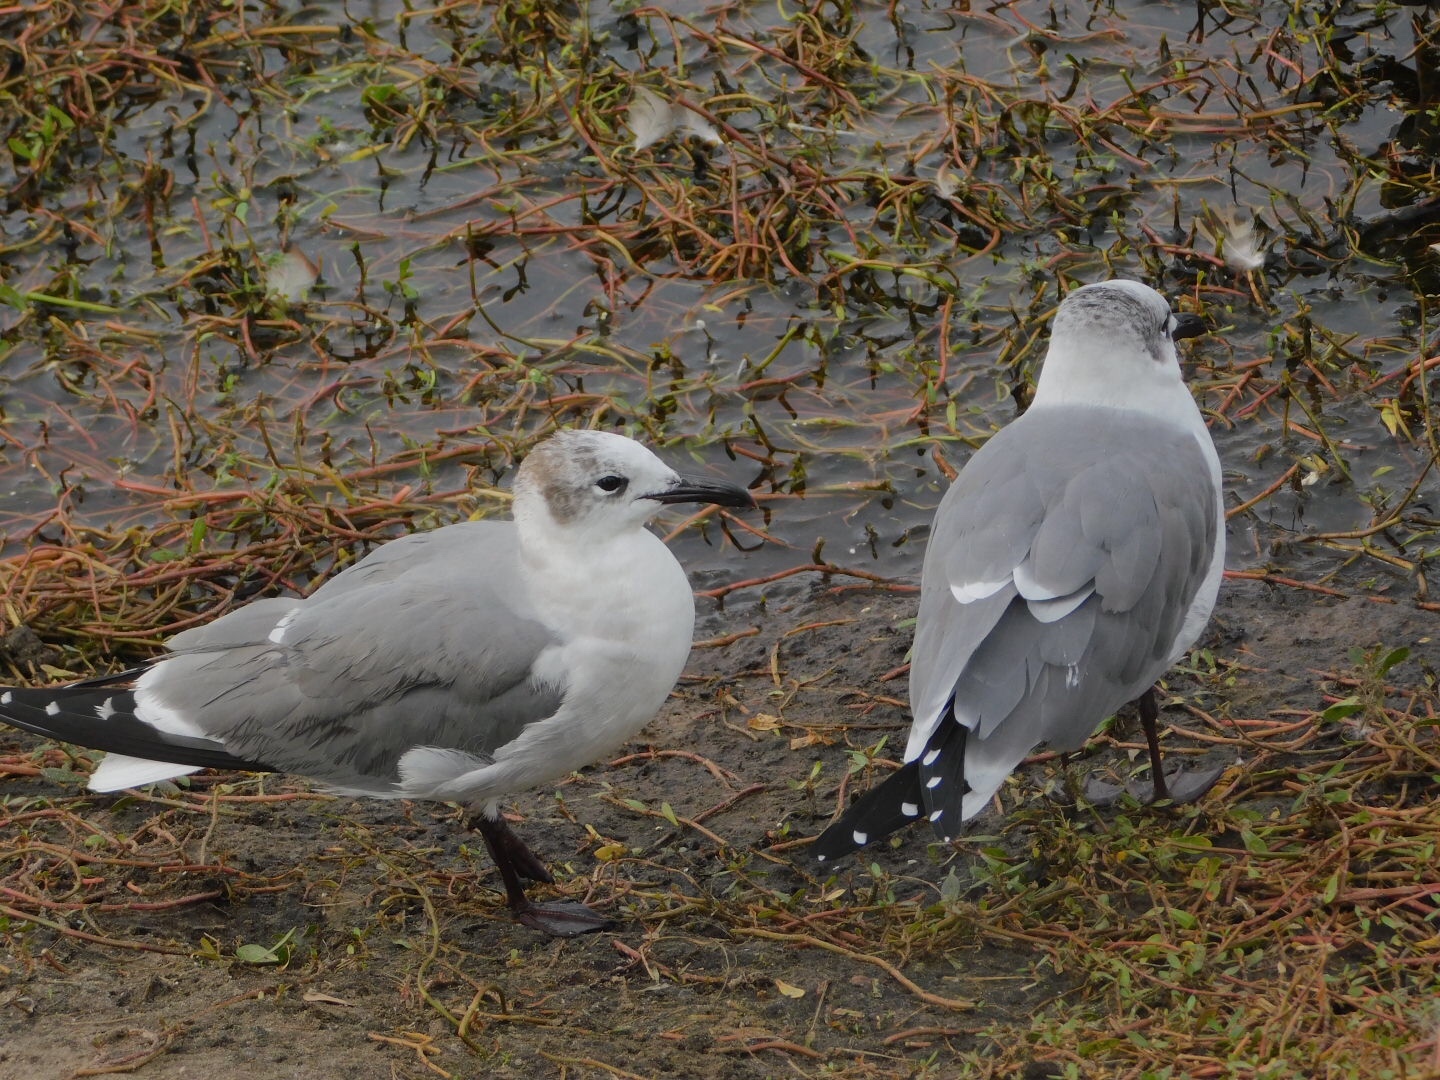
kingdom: Animalia
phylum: Chordata
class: Aves
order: Charadriiformes
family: Laridae
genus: Leucophaeus
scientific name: Leucophaeus atricilla
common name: Laughing gull
